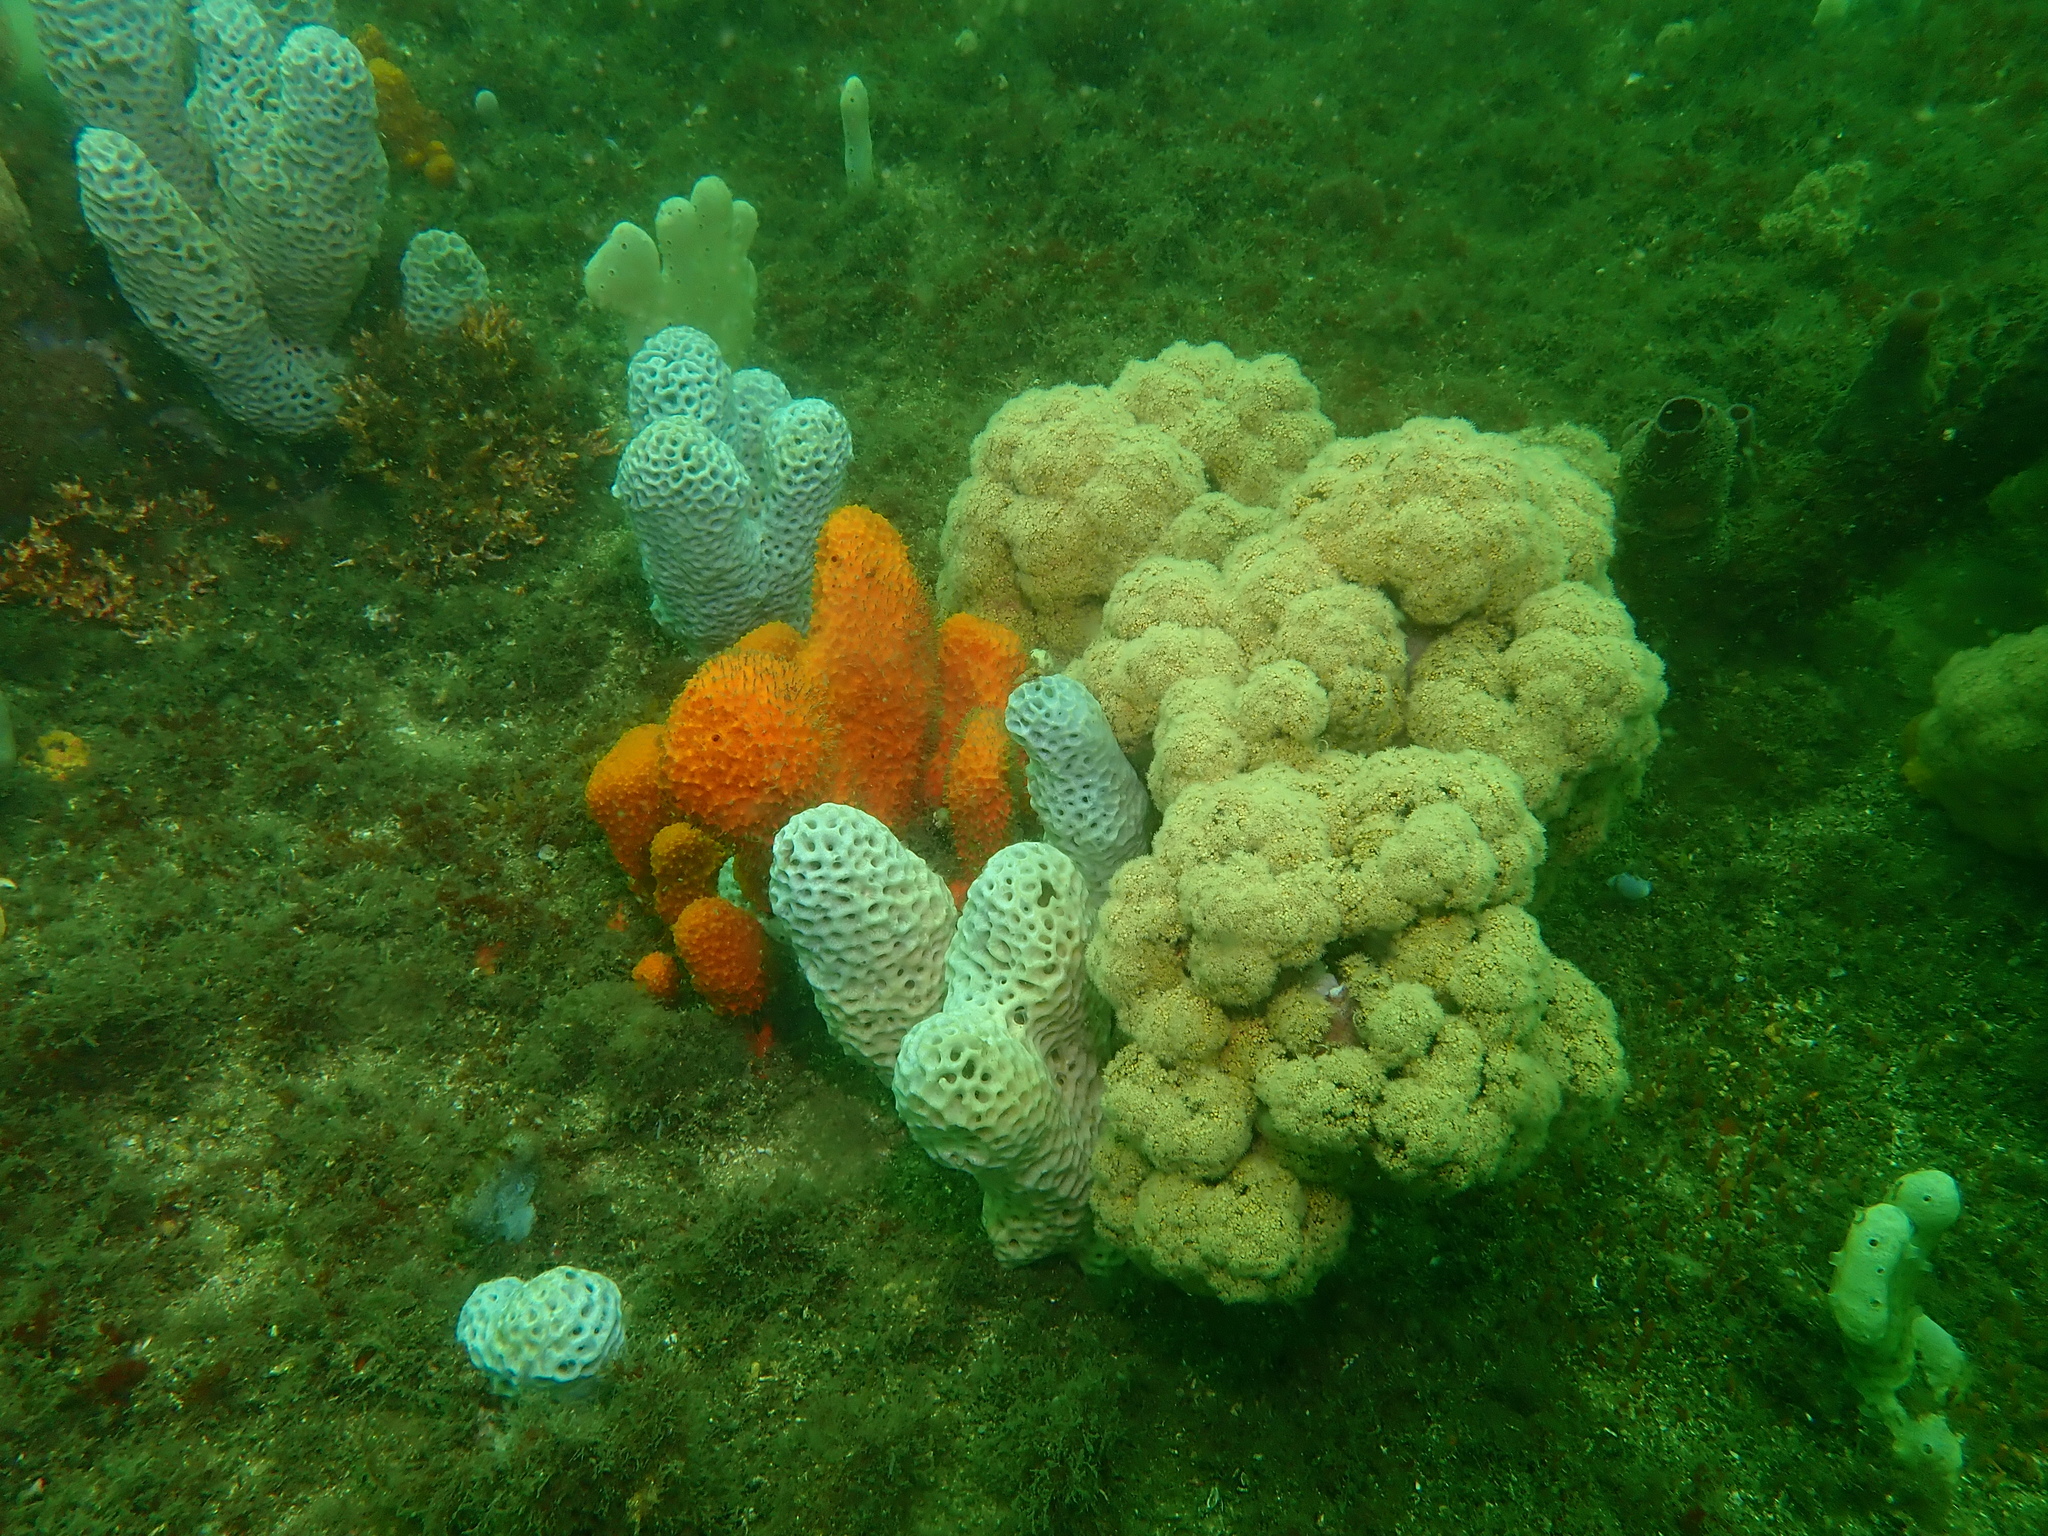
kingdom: Animalia
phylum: Cnidaria
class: Anthozoa
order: Malacalcyonacea
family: Nephtheidae
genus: Dendronephthya
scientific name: Dendronephthya australis
